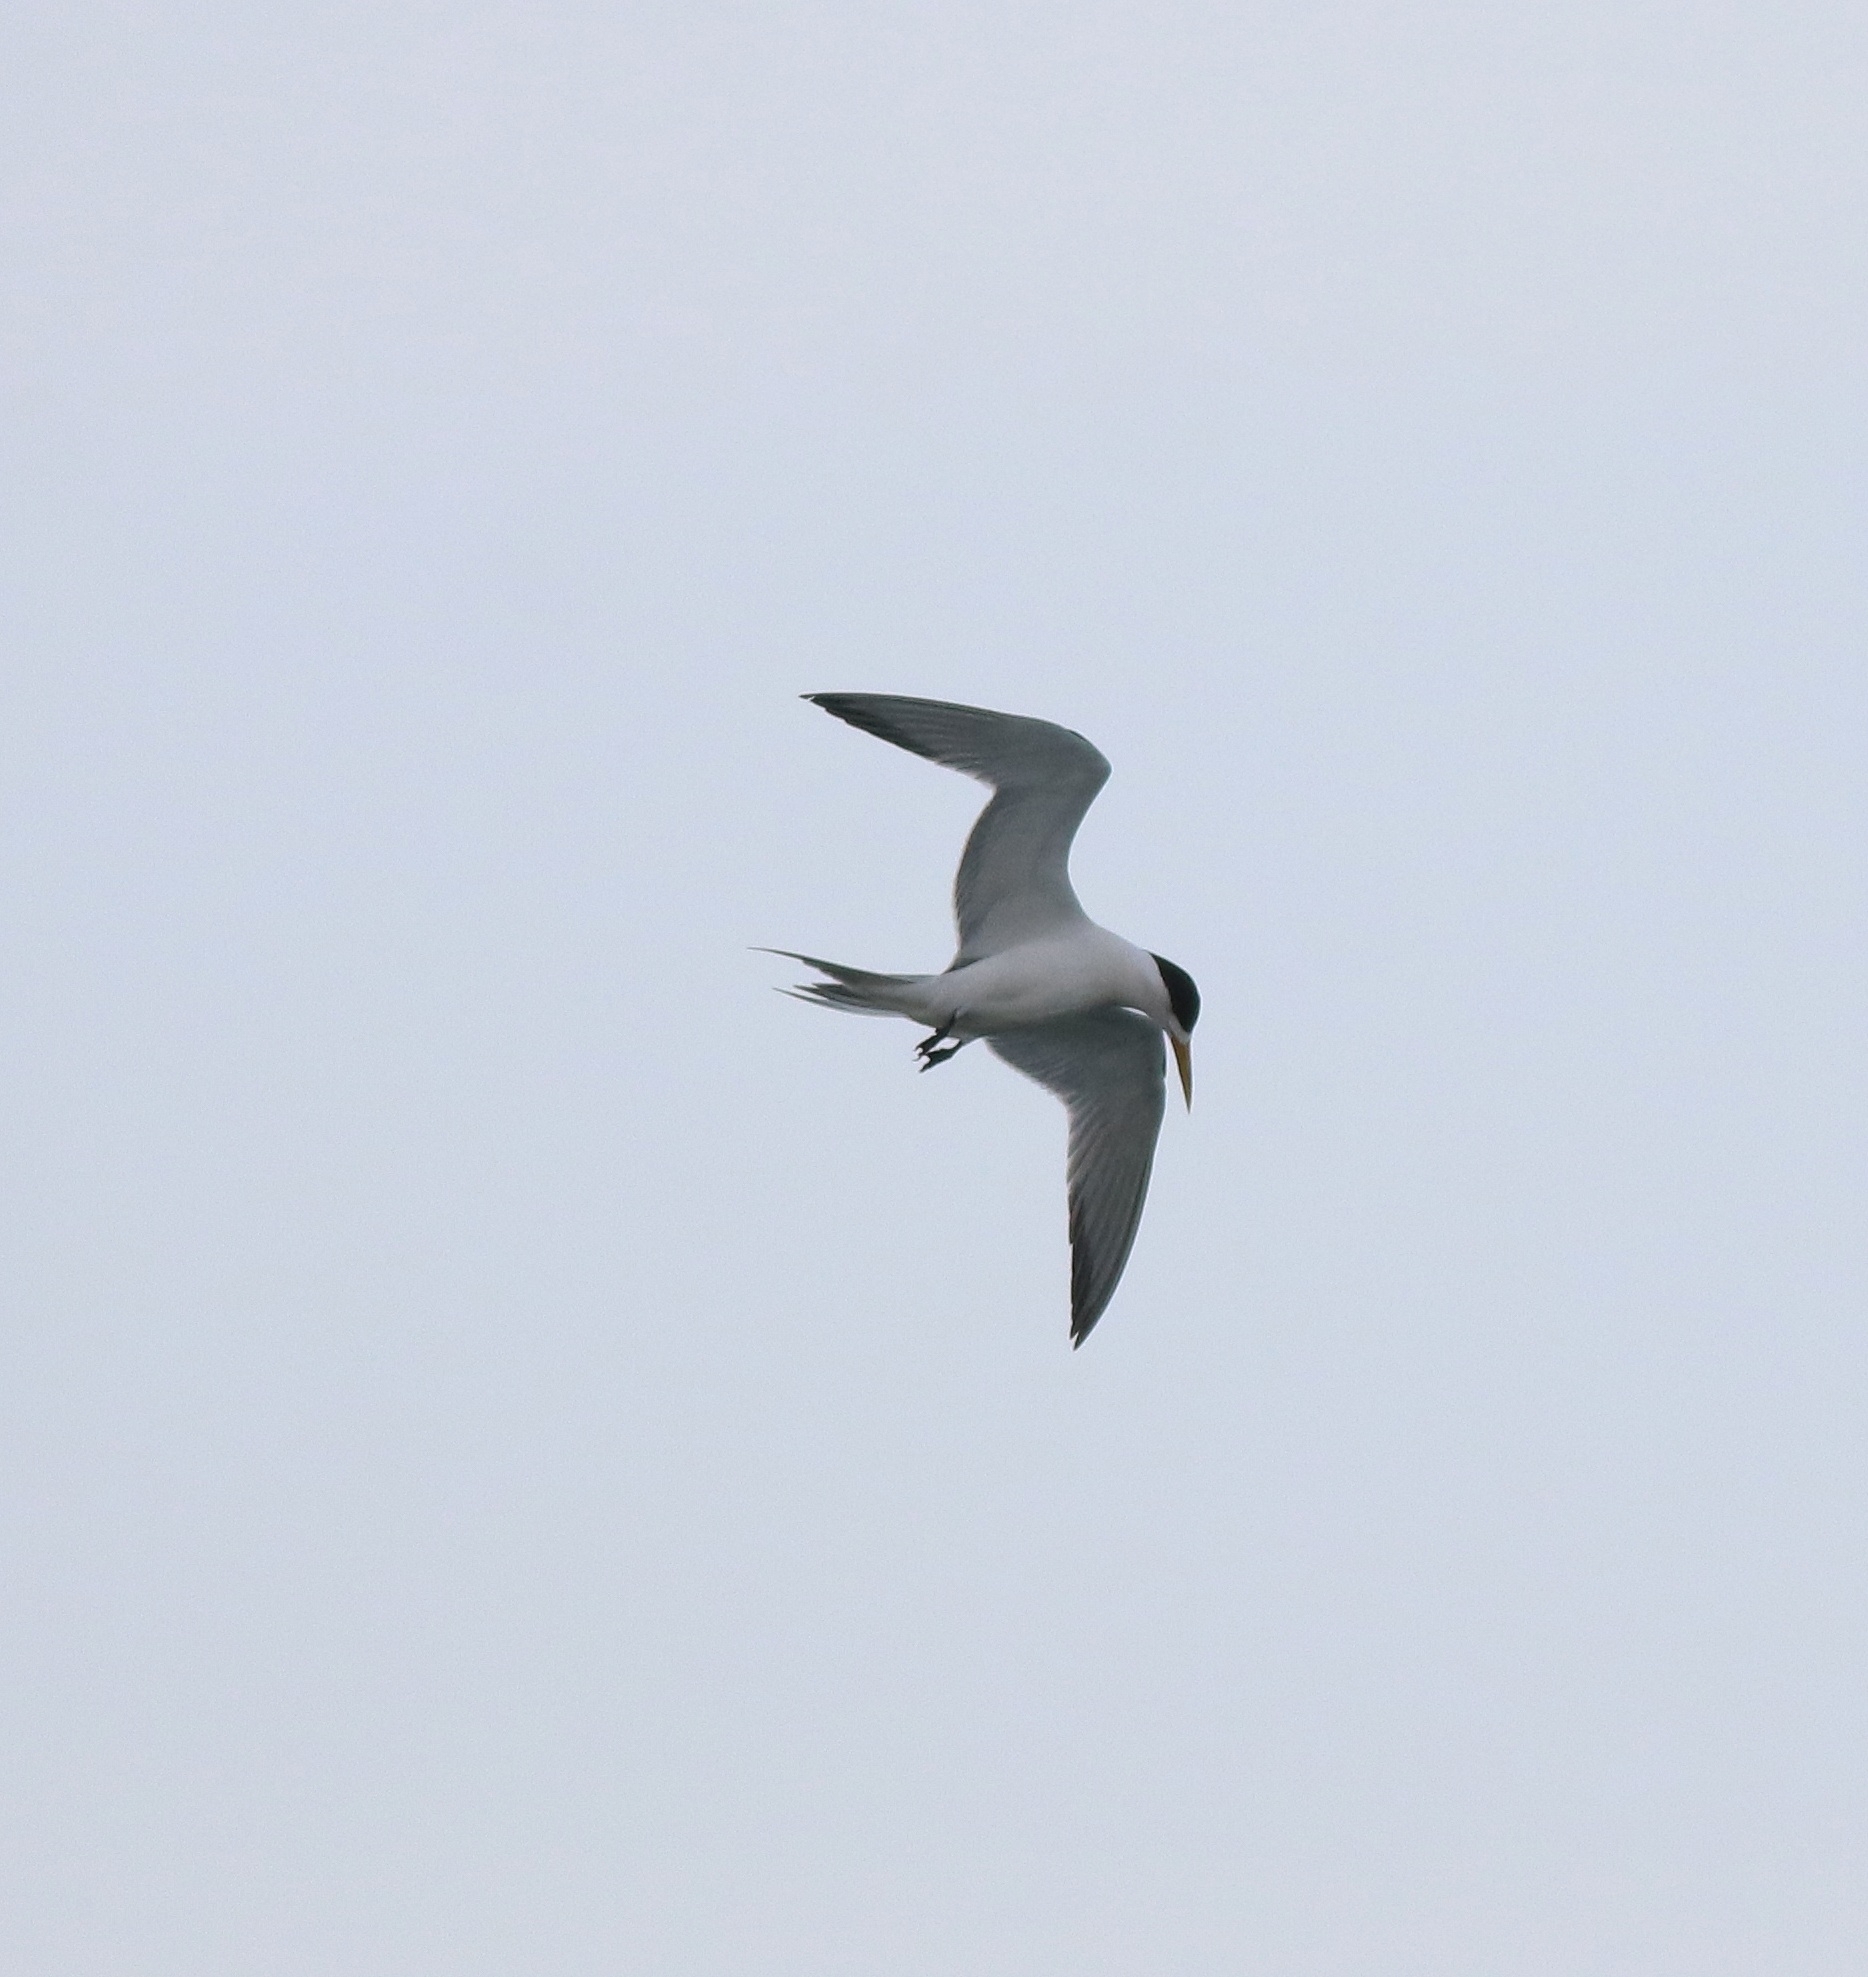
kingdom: Animalia
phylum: Chordata
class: Aves
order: Charadriiformes
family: Laridae
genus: Thalasseus
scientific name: Thalasseus bergii
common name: Greater crested tern
